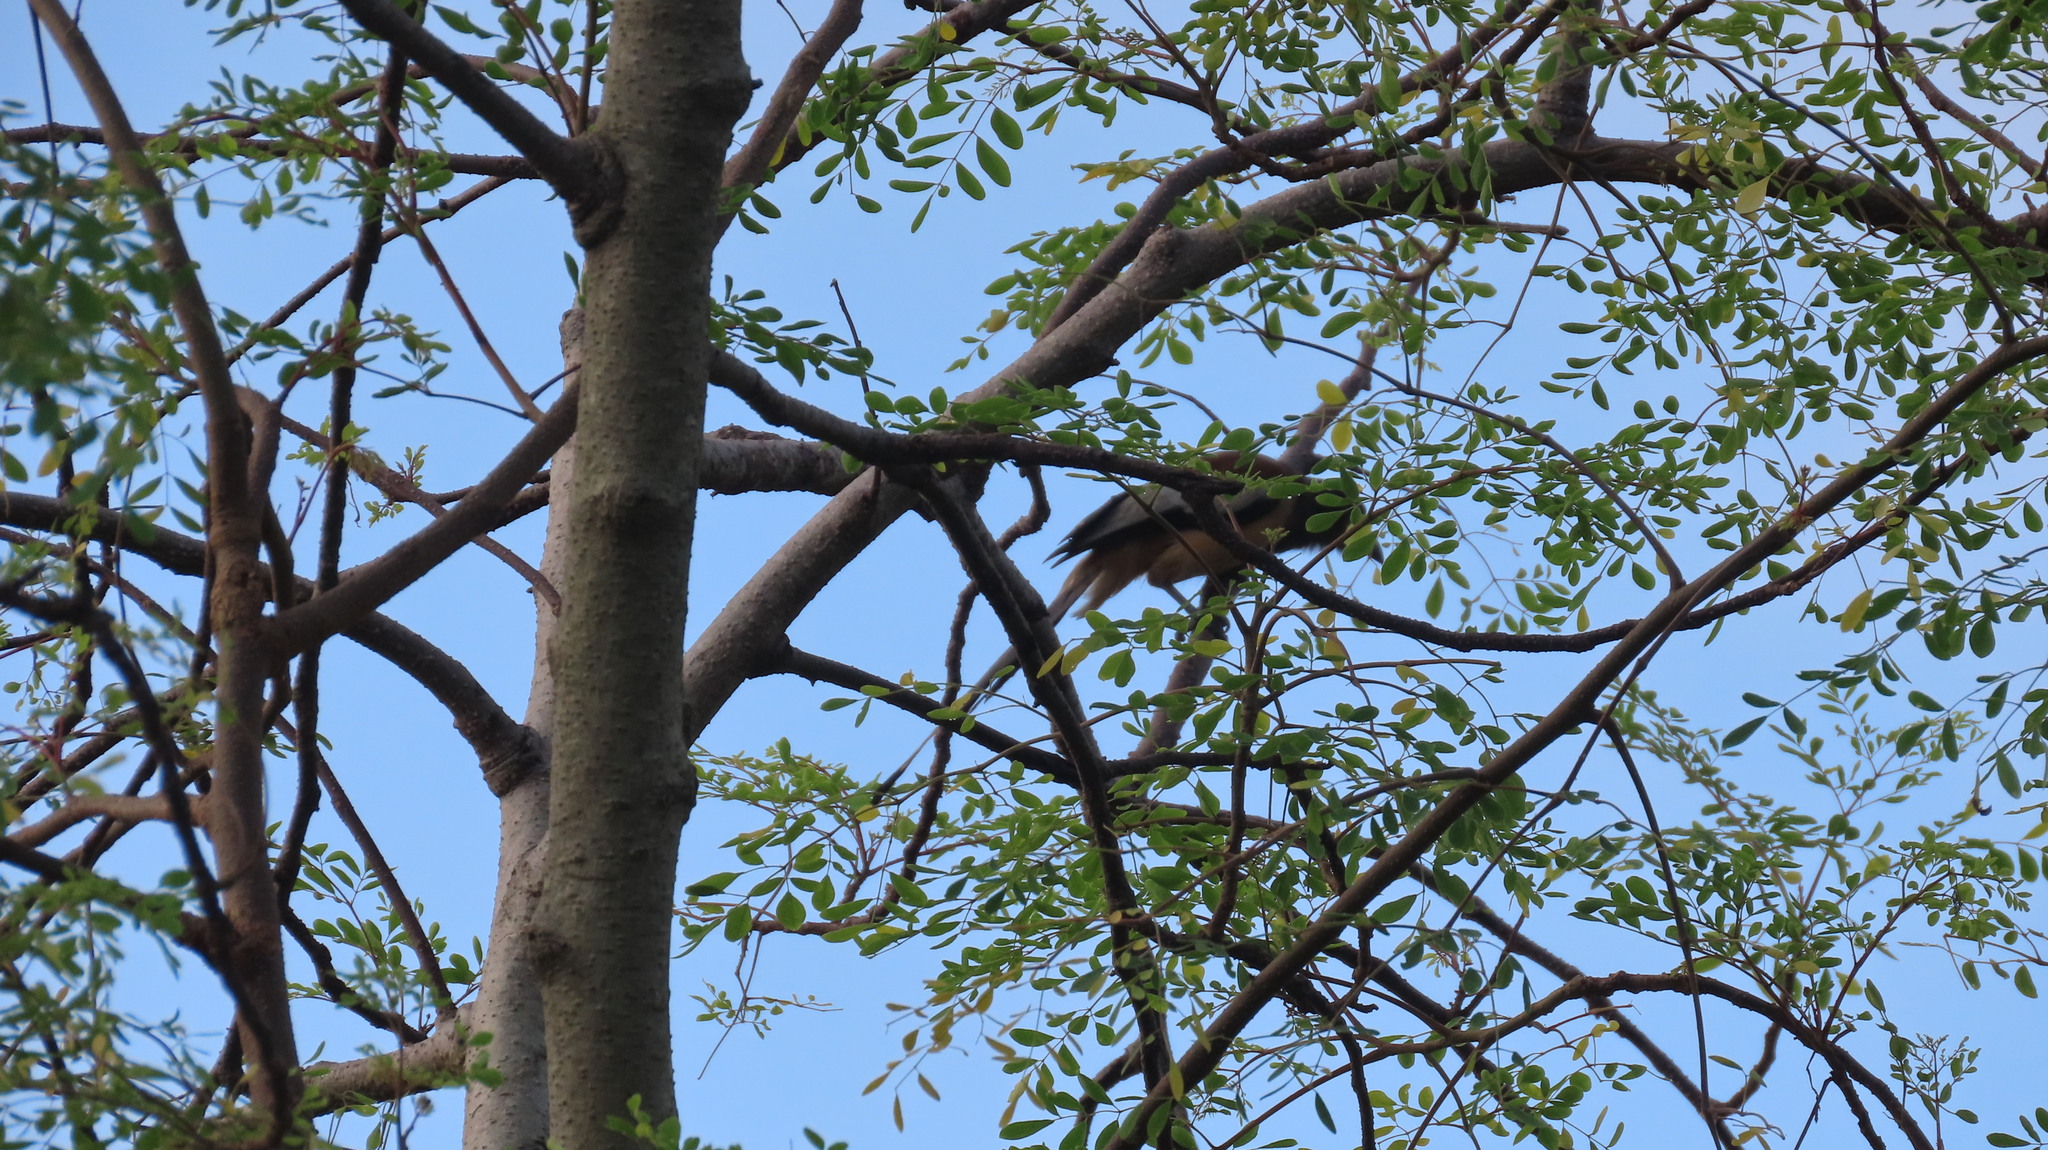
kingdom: Animalia
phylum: Chordata
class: Aves
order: Passeriformes
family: Corvidae
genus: Dendrocitta
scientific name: Dendrocitta vagabunda
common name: Rufous treepie
